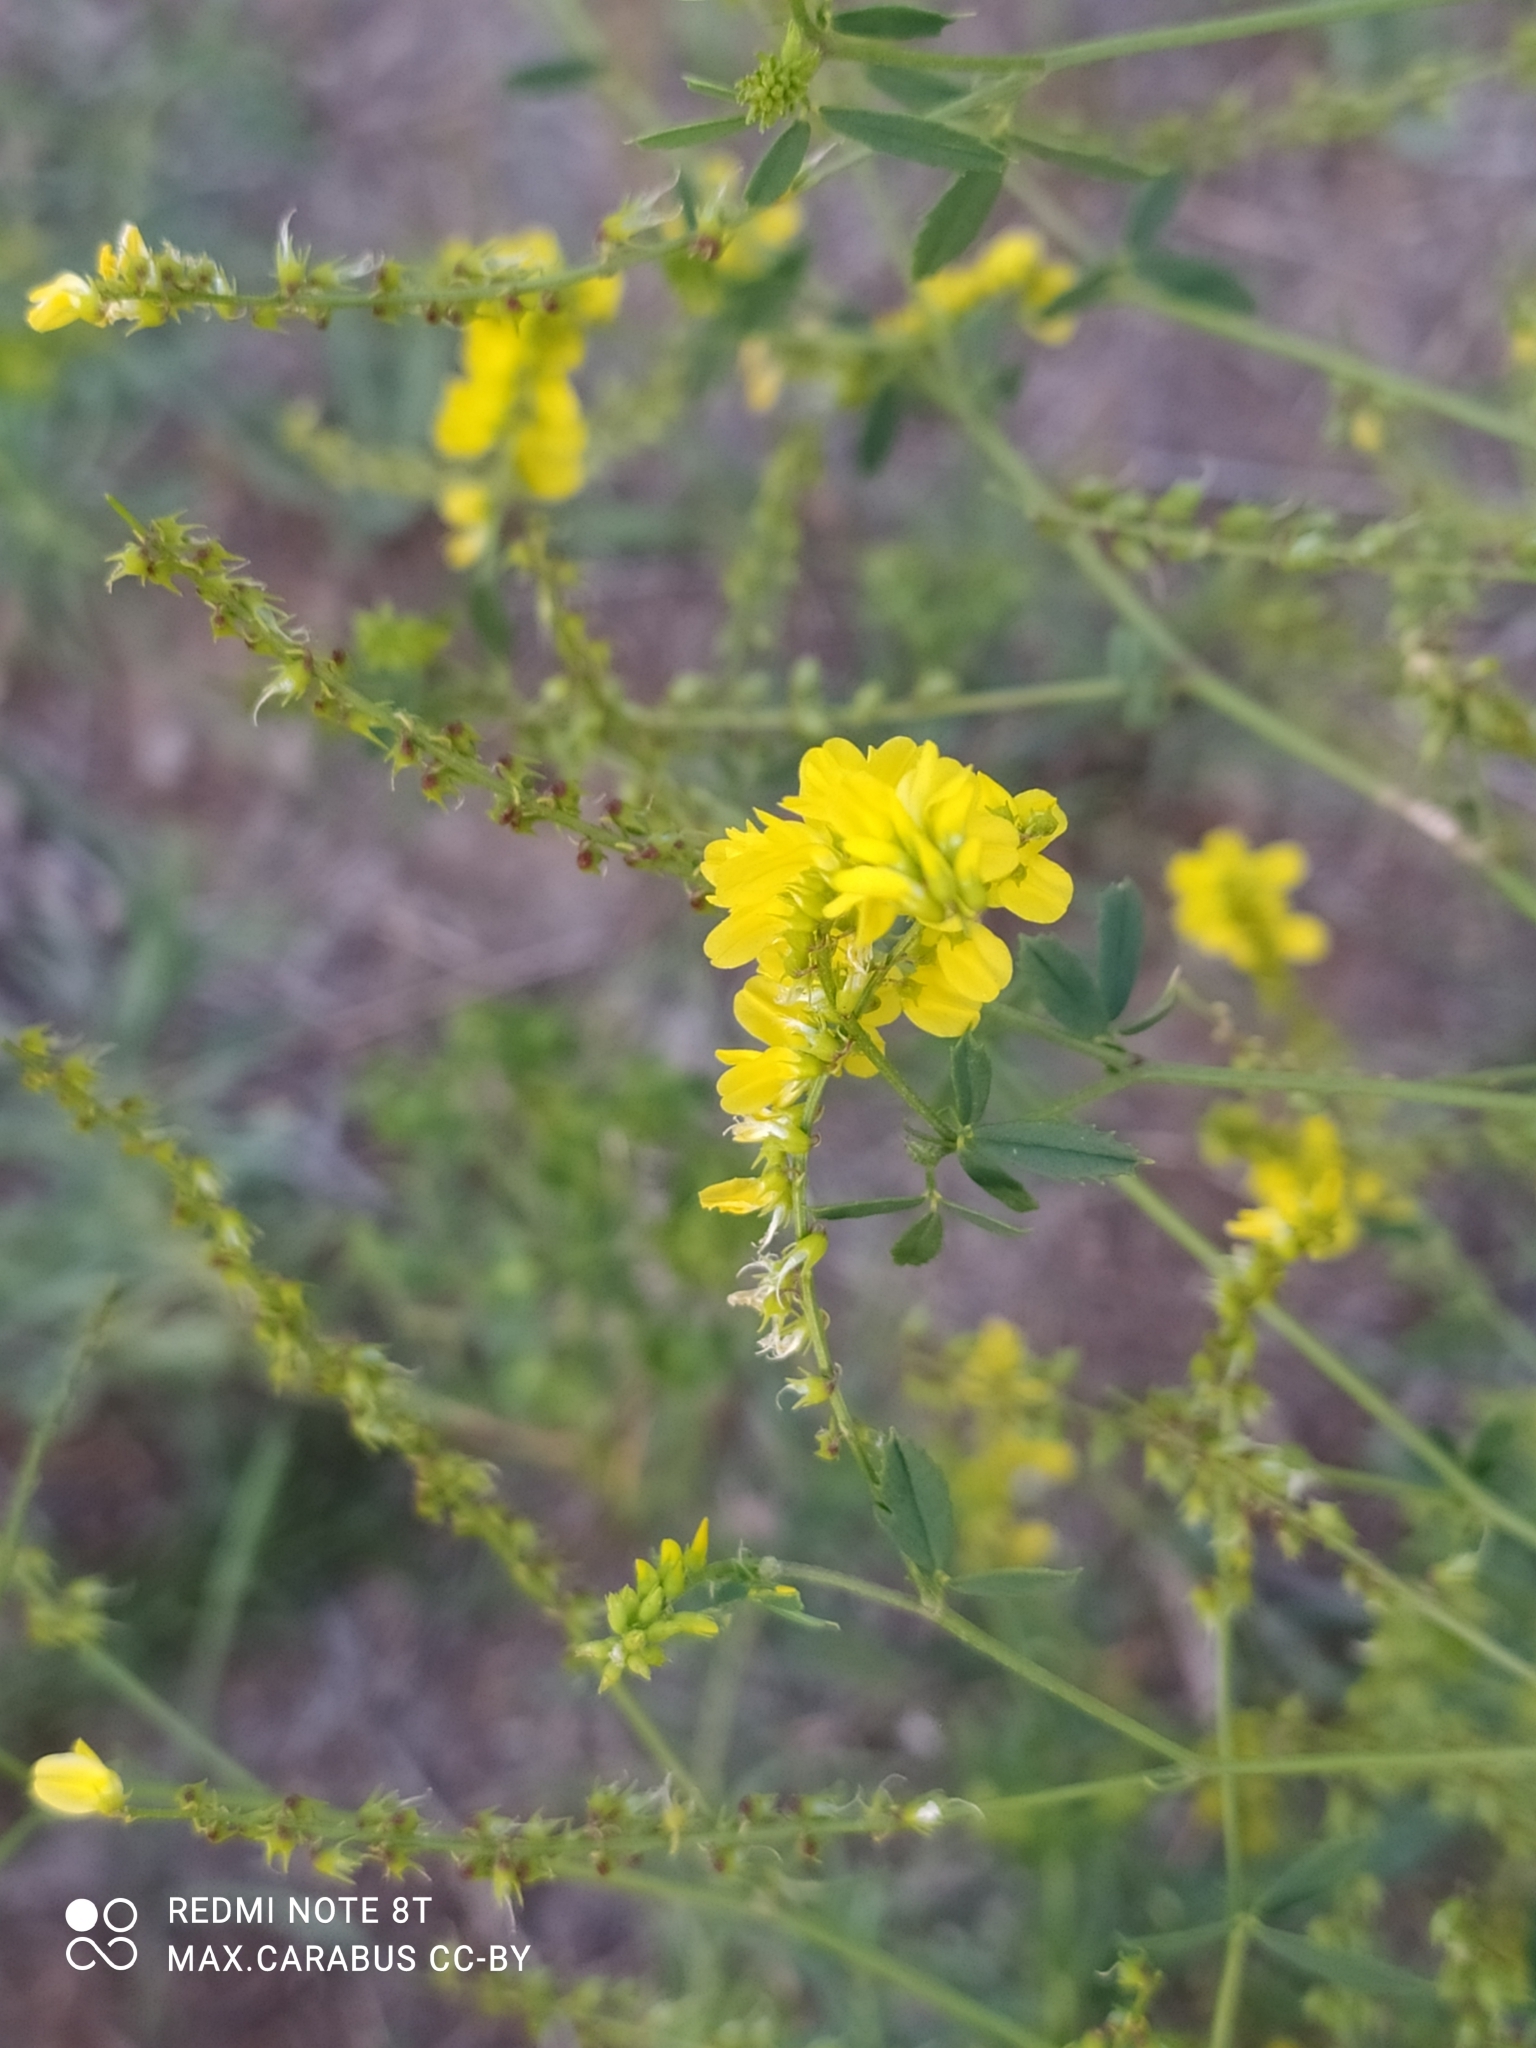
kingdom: Plantae
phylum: Tracheophyta
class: Magnoliopsida
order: Fabales
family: Fabaceae
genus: Melilotus
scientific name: Melilotus officinalis
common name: Sweetclover
